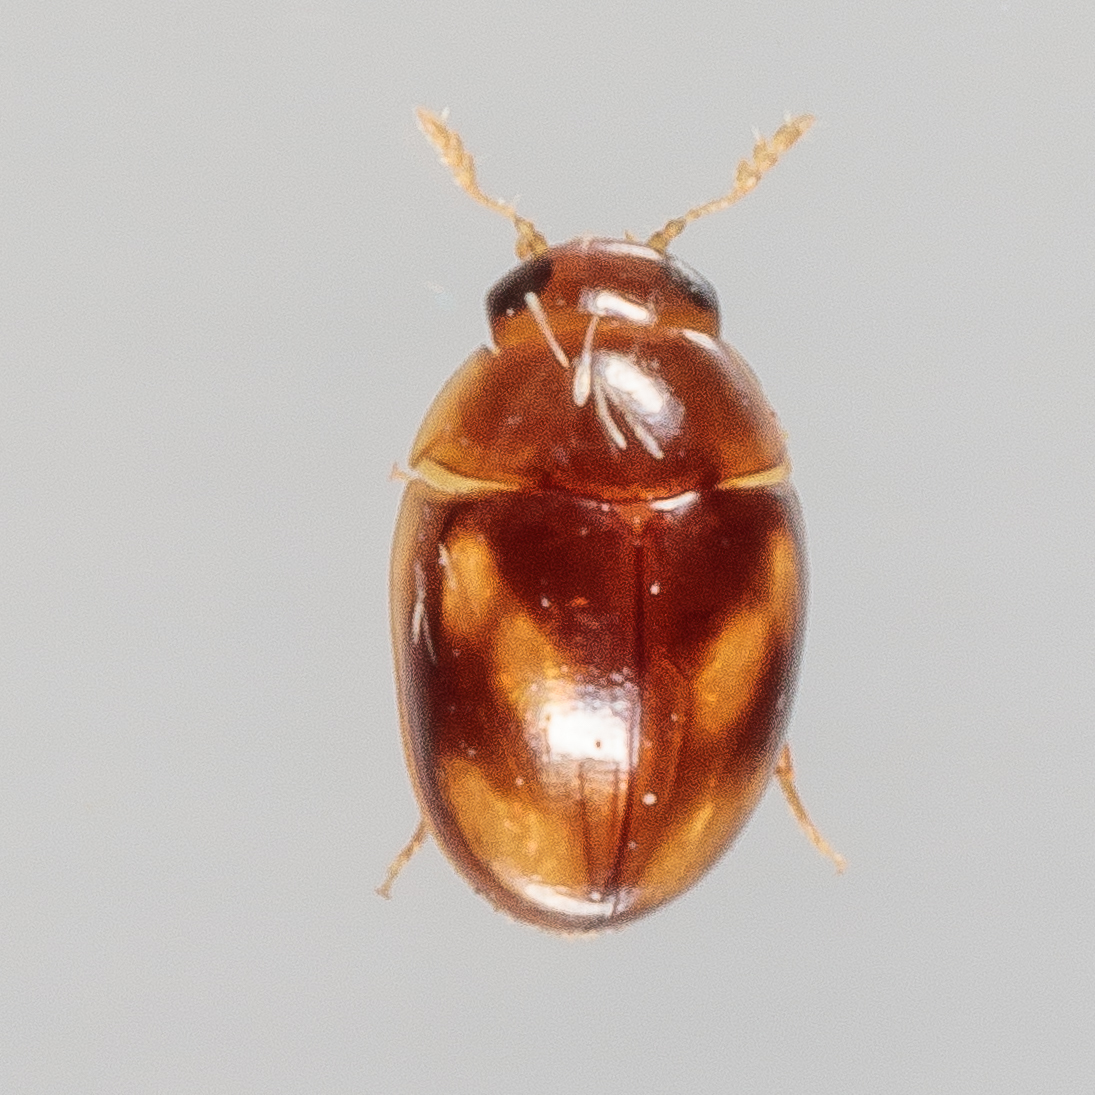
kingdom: Animalia
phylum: Arthropoda
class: Insecta
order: Coleoptera
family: Phalacridae
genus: Neolitochrus
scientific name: Neolitochrus
